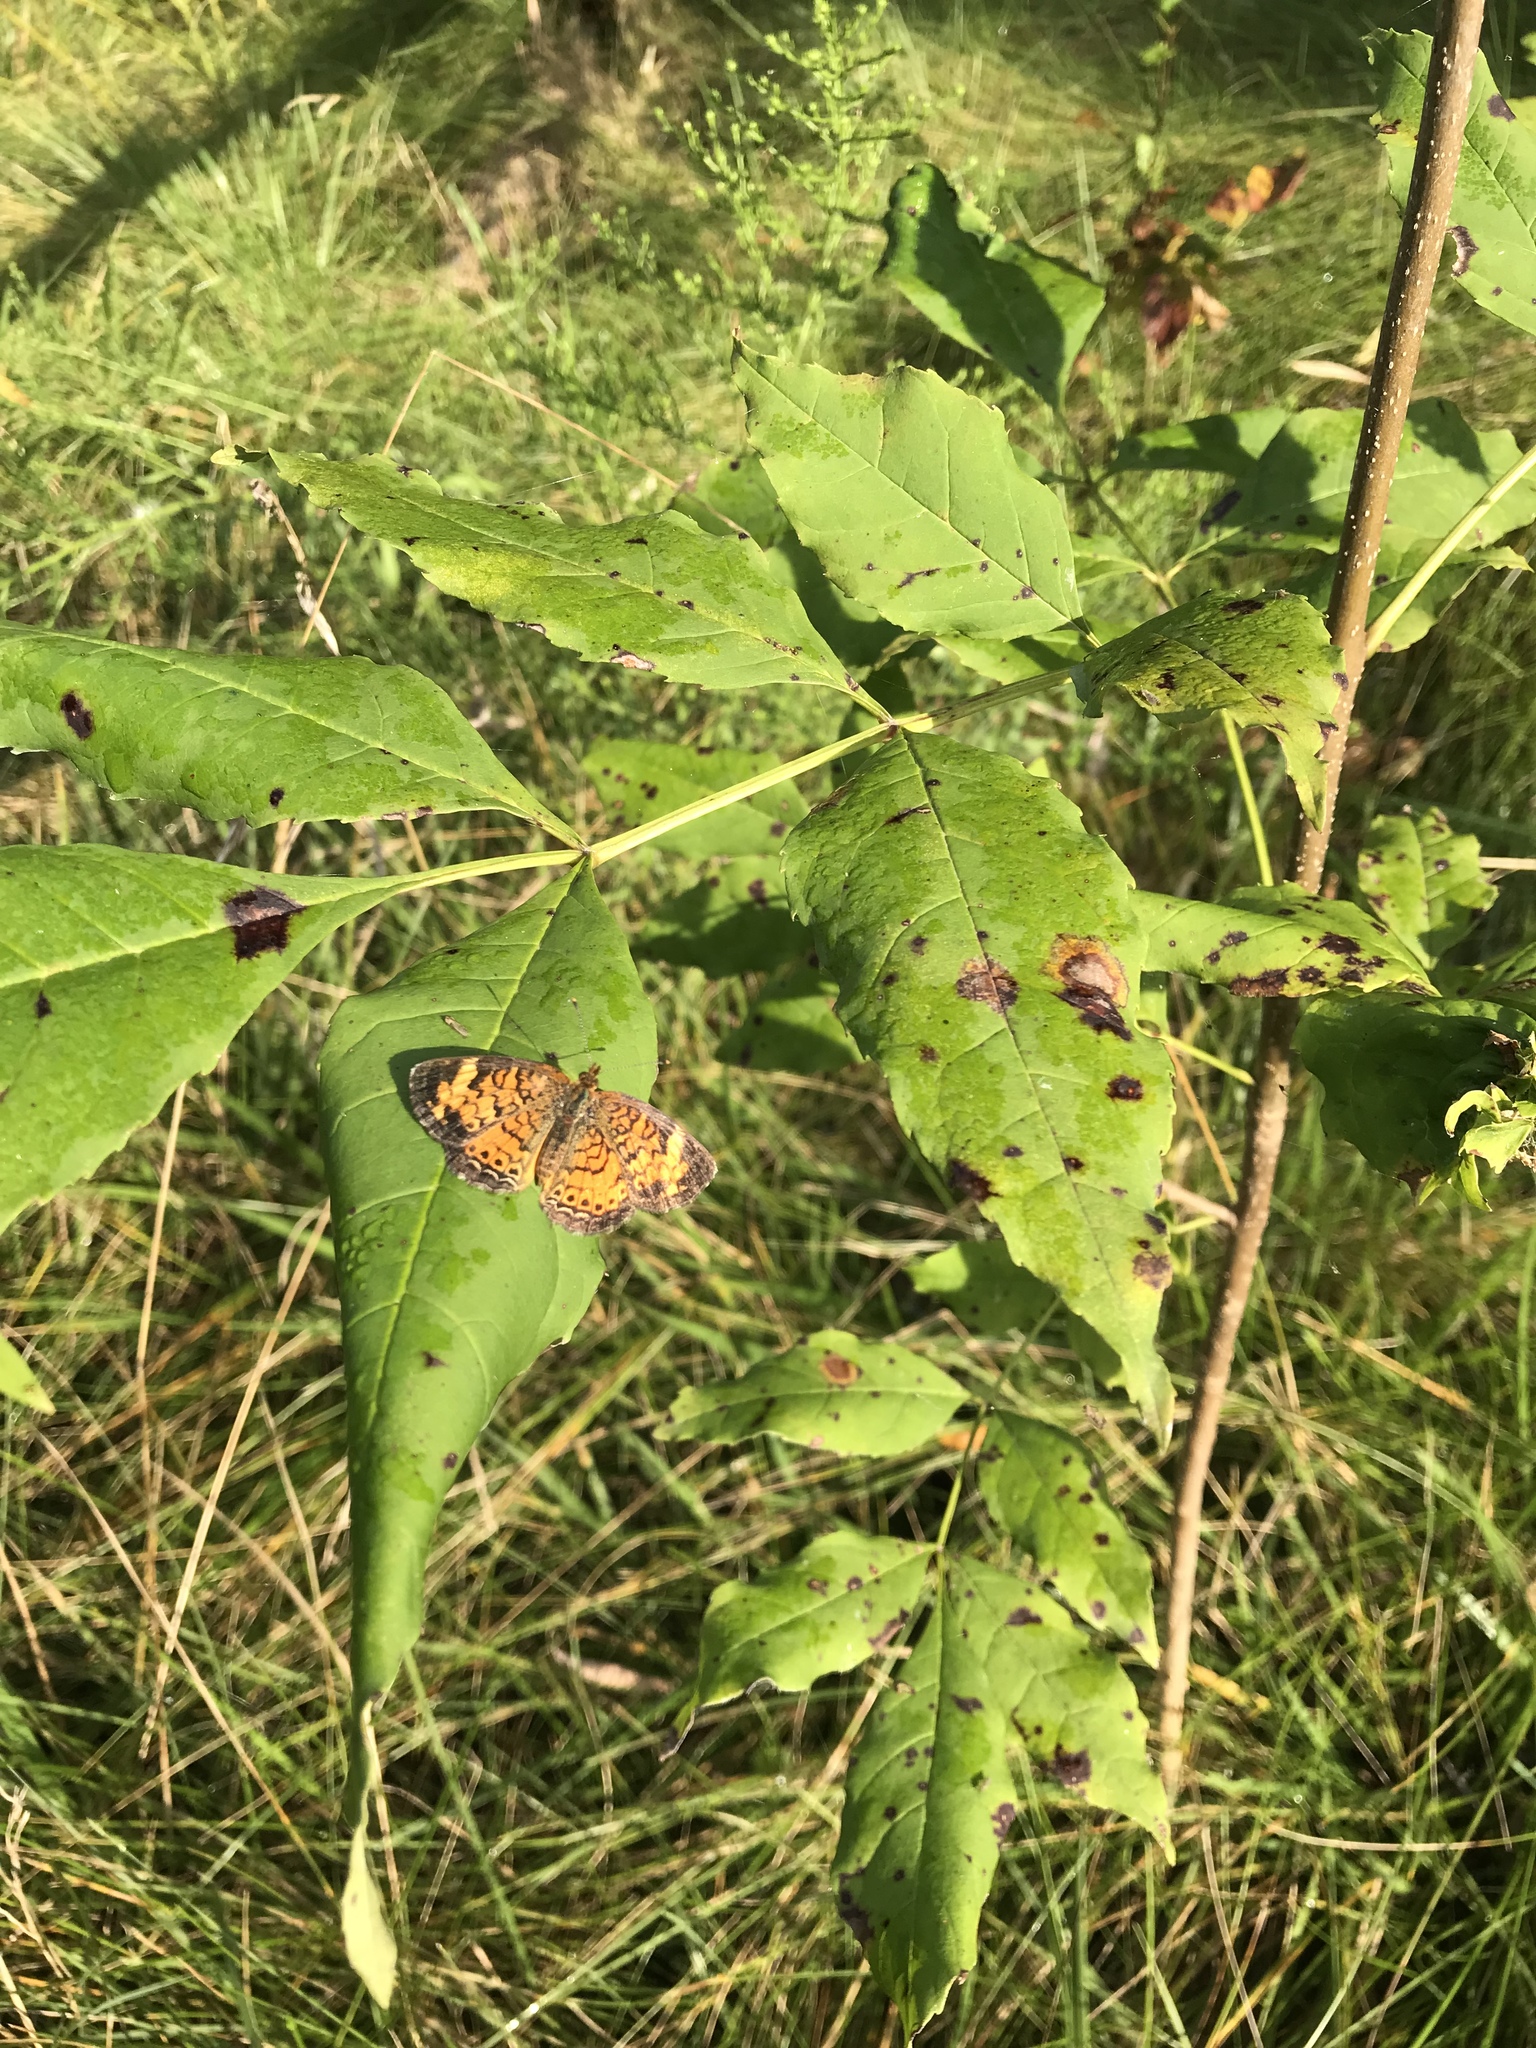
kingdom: Animalia
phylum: Arthropoda
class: Insecta
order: Lepidoptera
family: Nymphalidae
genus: Phyciodes
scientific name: Phyciodes tharos
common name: Pearl crescent
